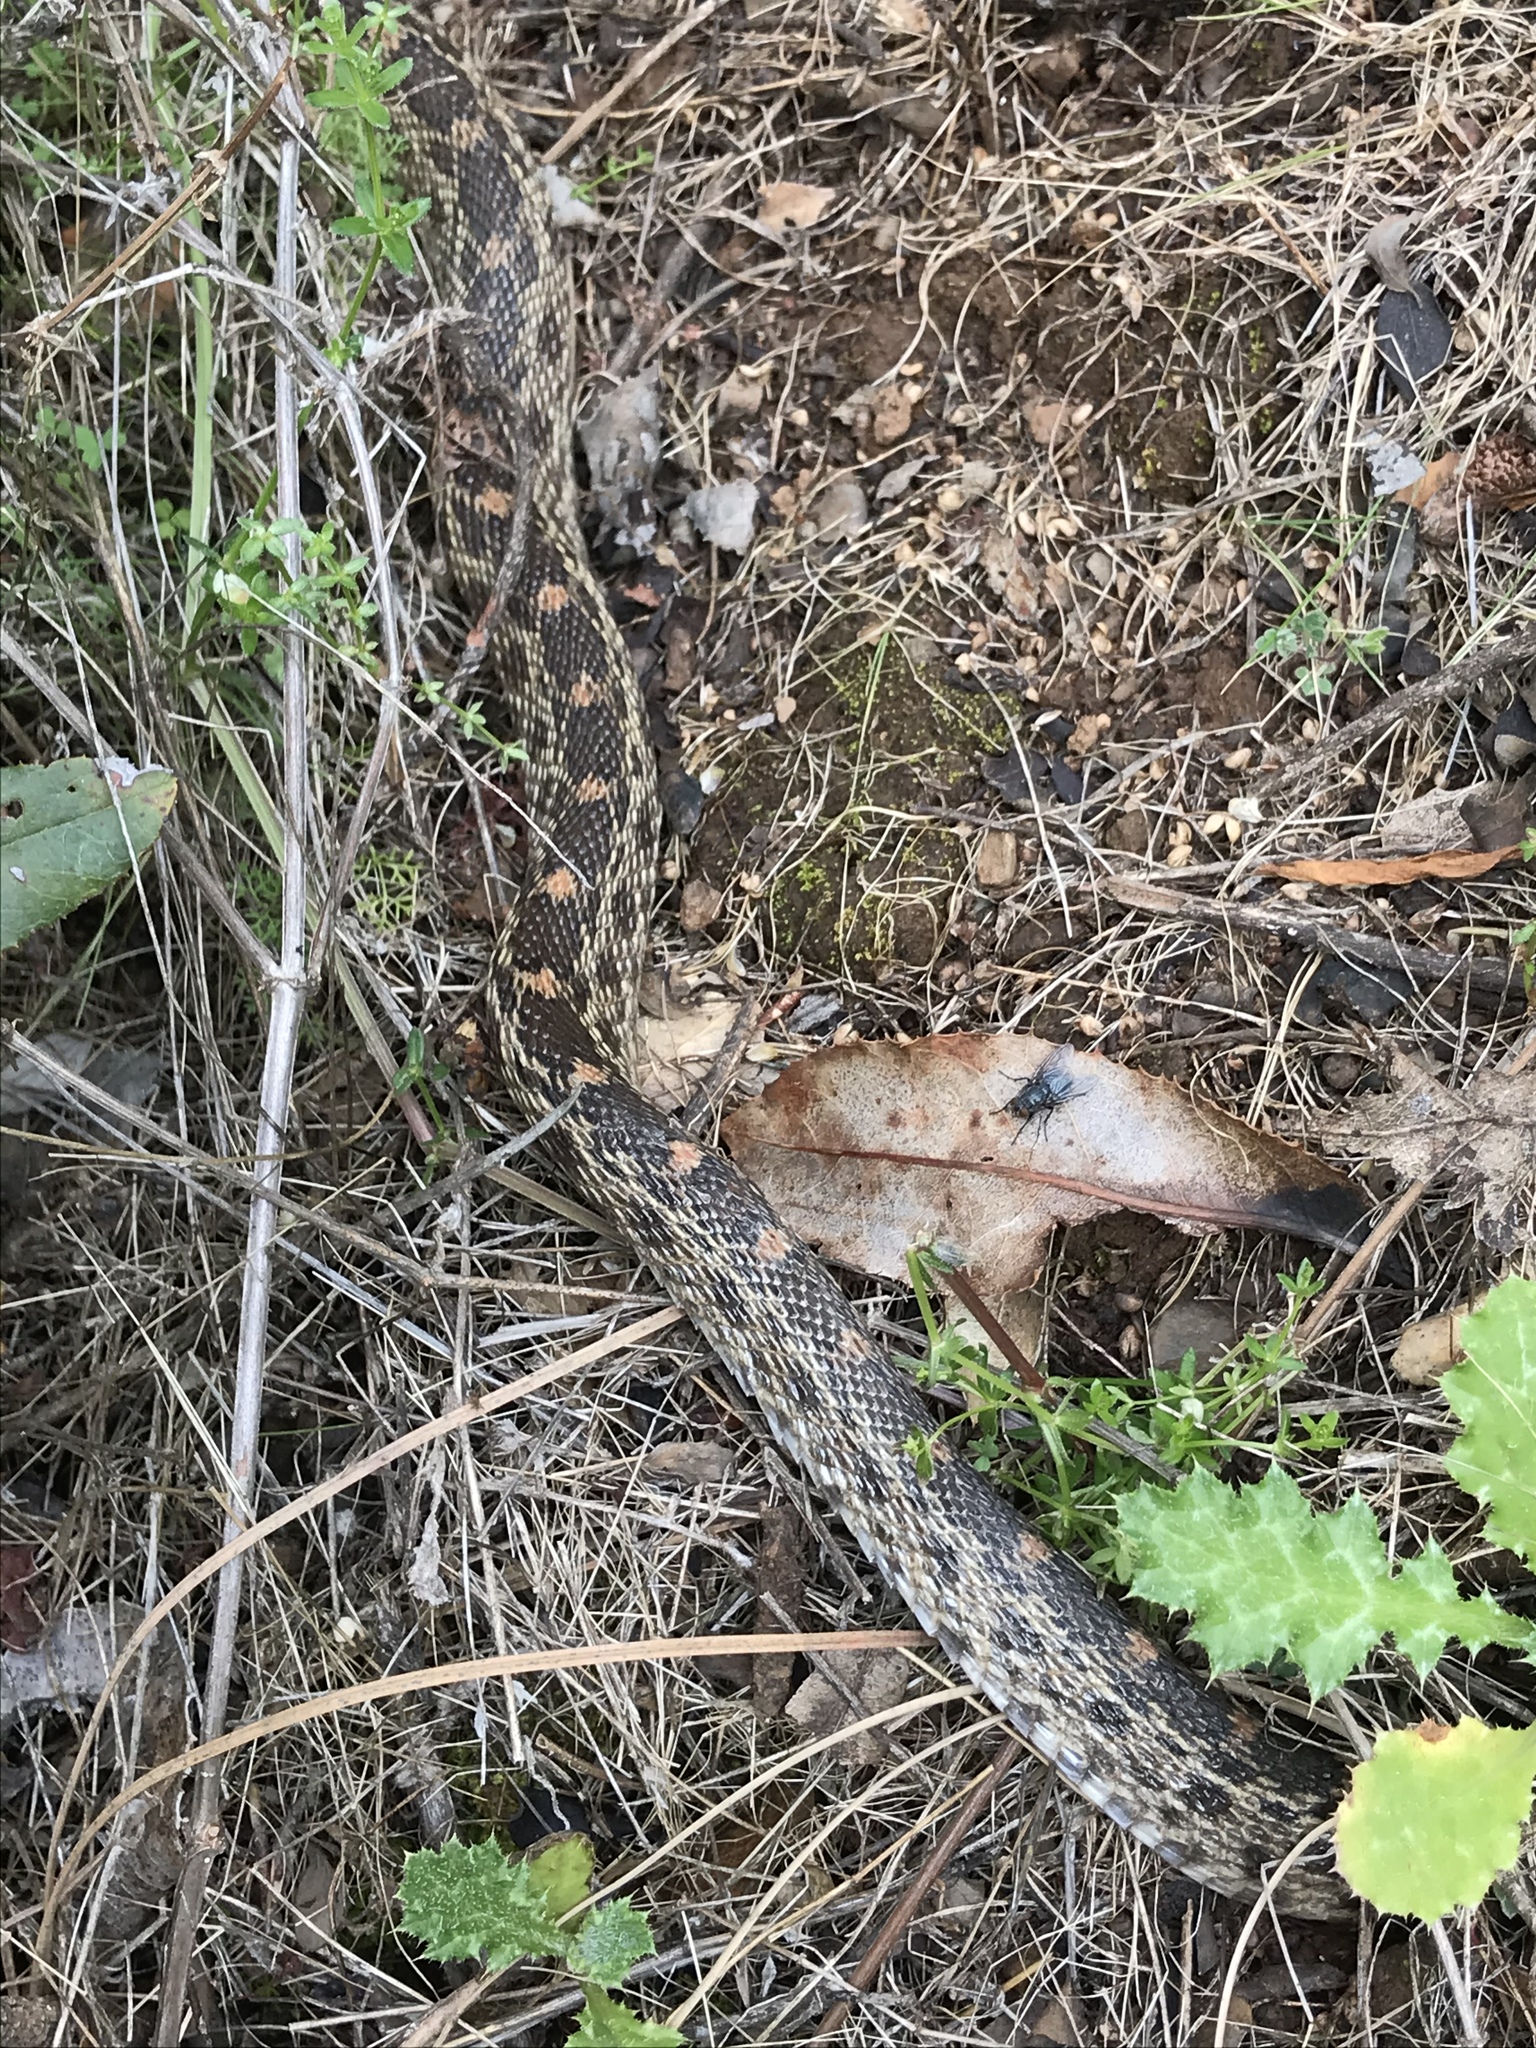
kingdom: Animalia
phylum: Chordata
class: Squamata
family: Colubridae
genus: Pituophis
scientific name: Pituophis catenifer
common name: Gopher snake
